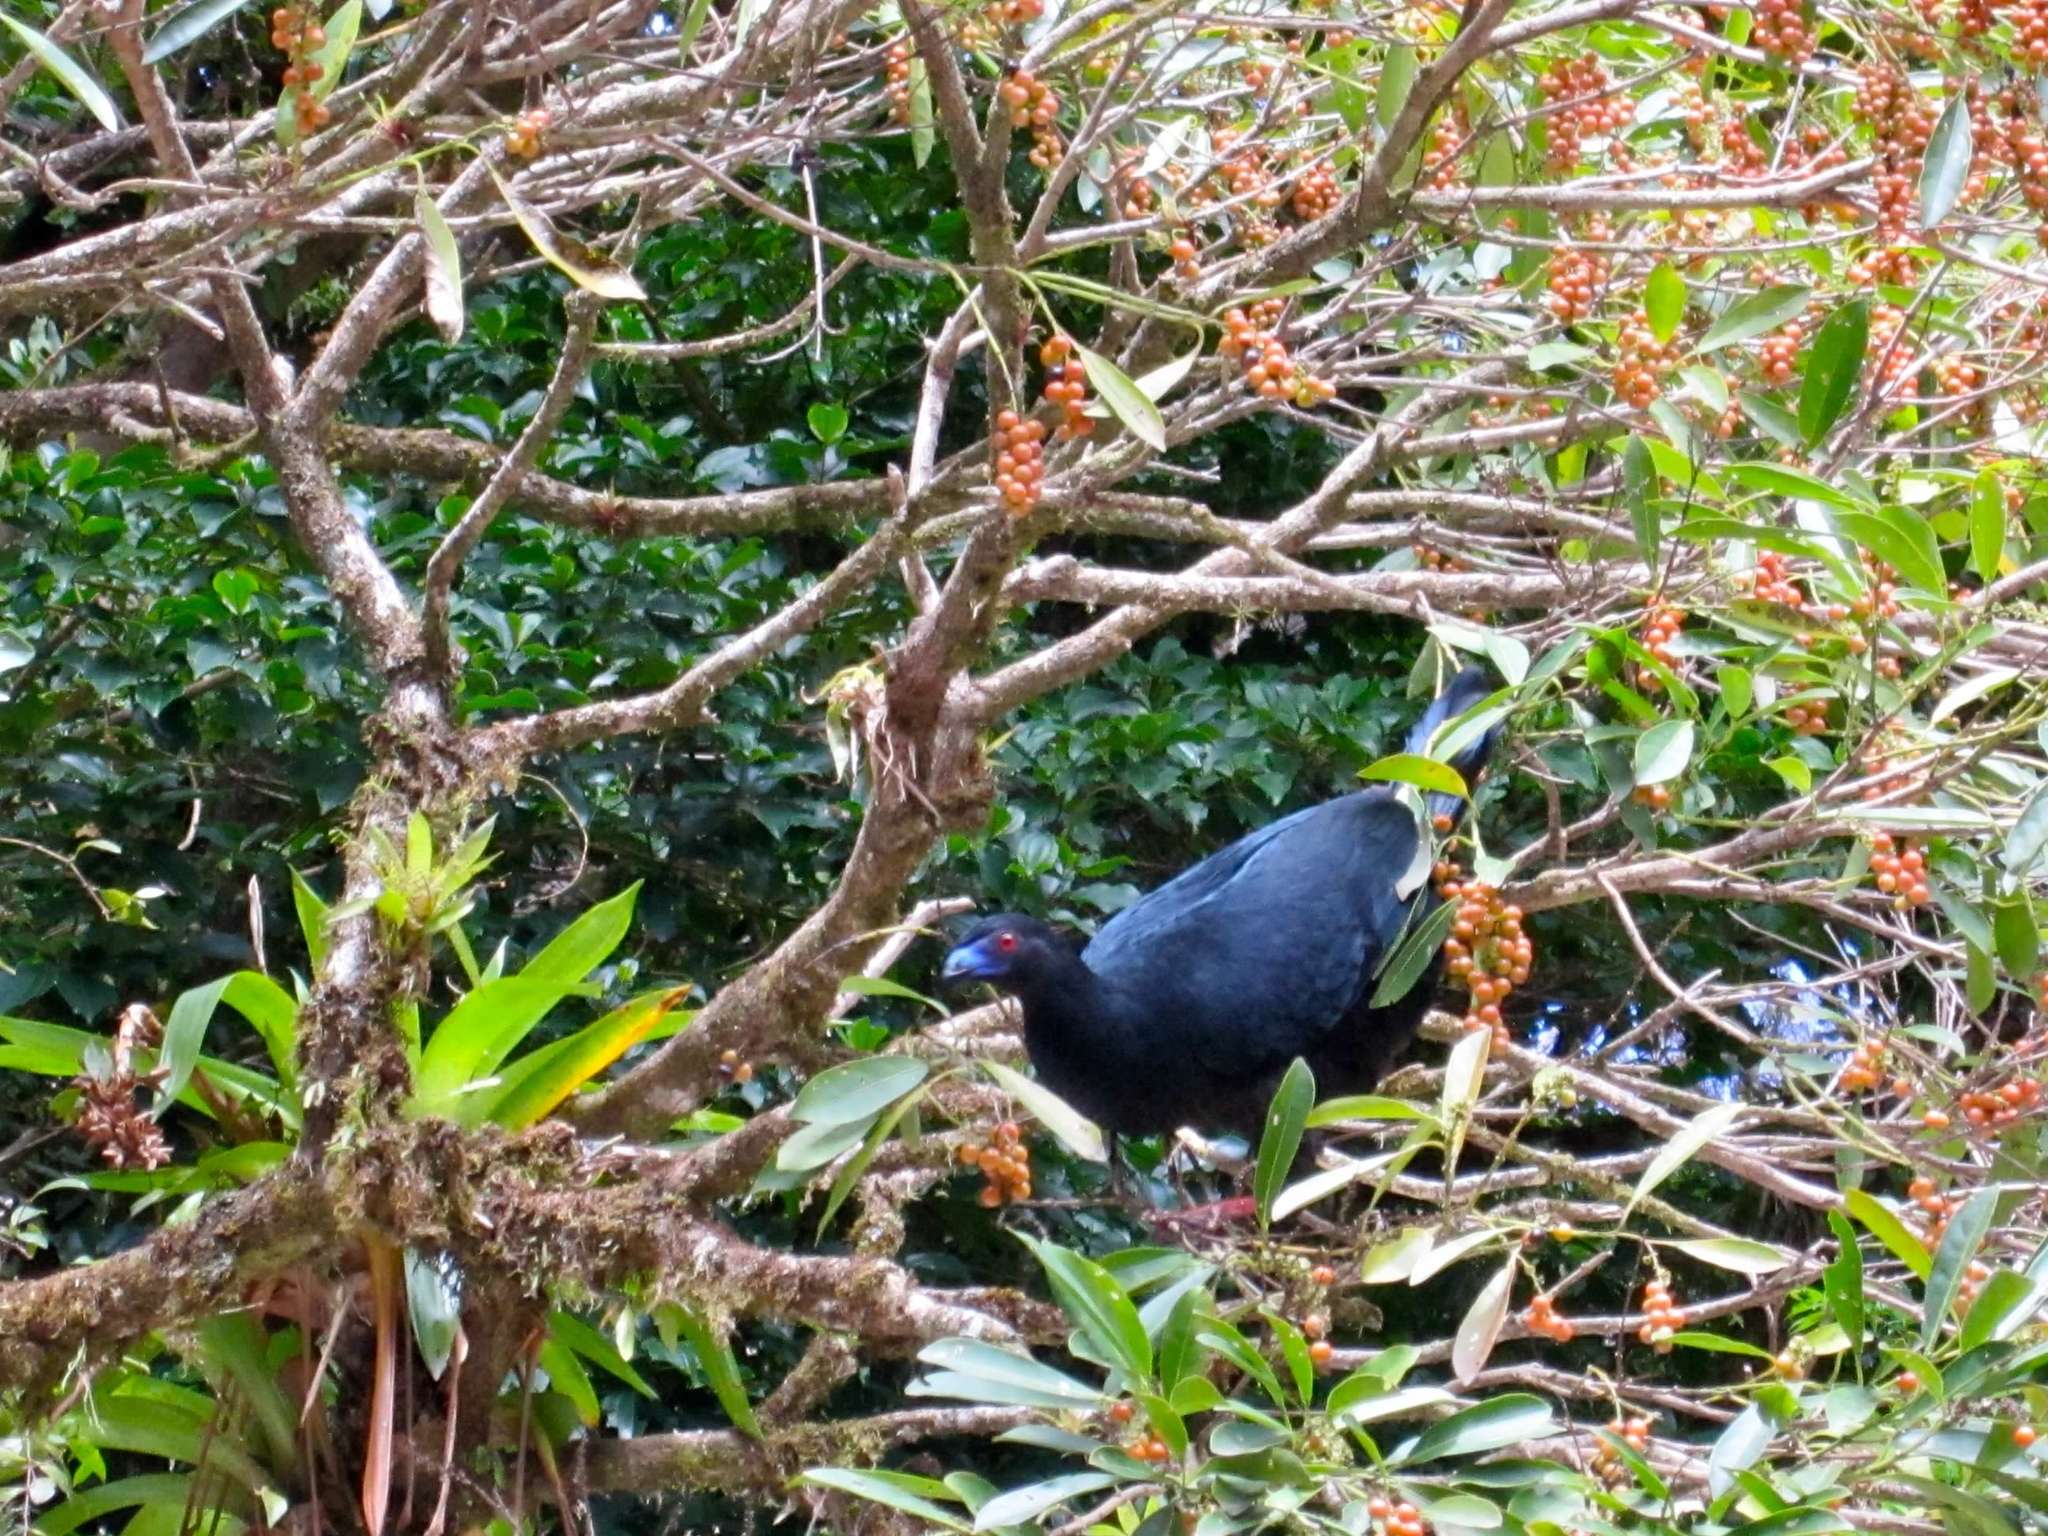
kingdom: Animalia
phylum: Chordata
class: Aves
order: Galliformes
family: Cracidae
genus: Chamaepetes
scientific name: Chamaepetes unicolor
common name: Black guan
